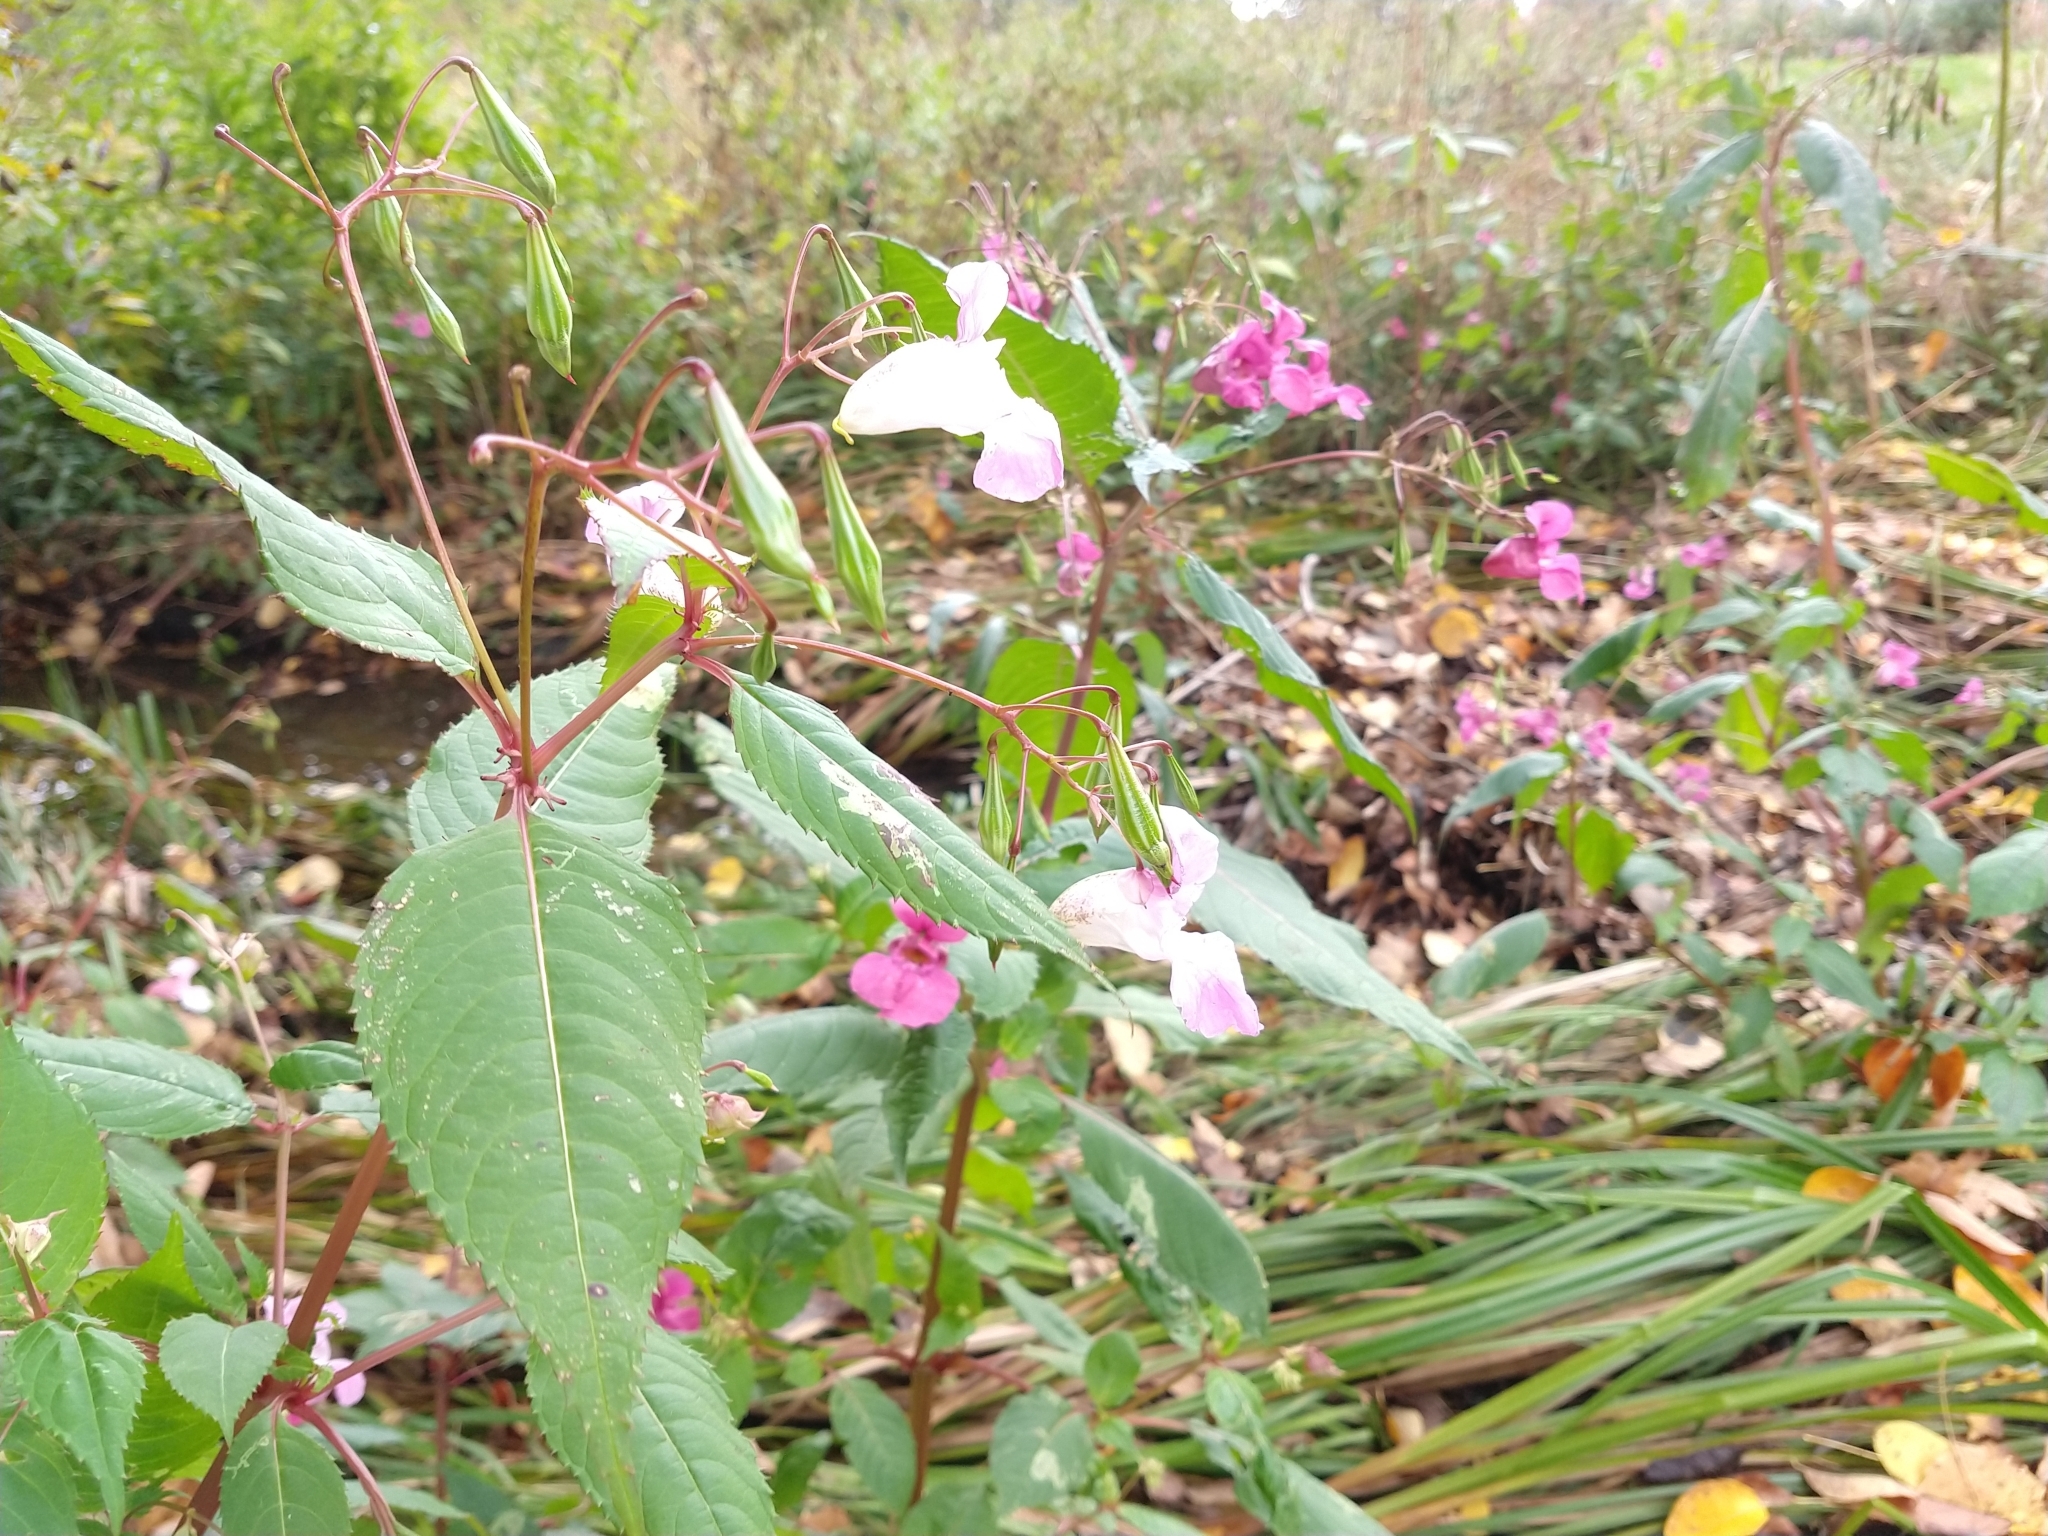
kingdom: Plantae
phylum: Tracheophyta
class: Magnoliopsida
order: Ericales
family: Balsaminaceae
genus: Impatiens
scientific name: Impatiens glandulifera
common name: Himalayan balsam
